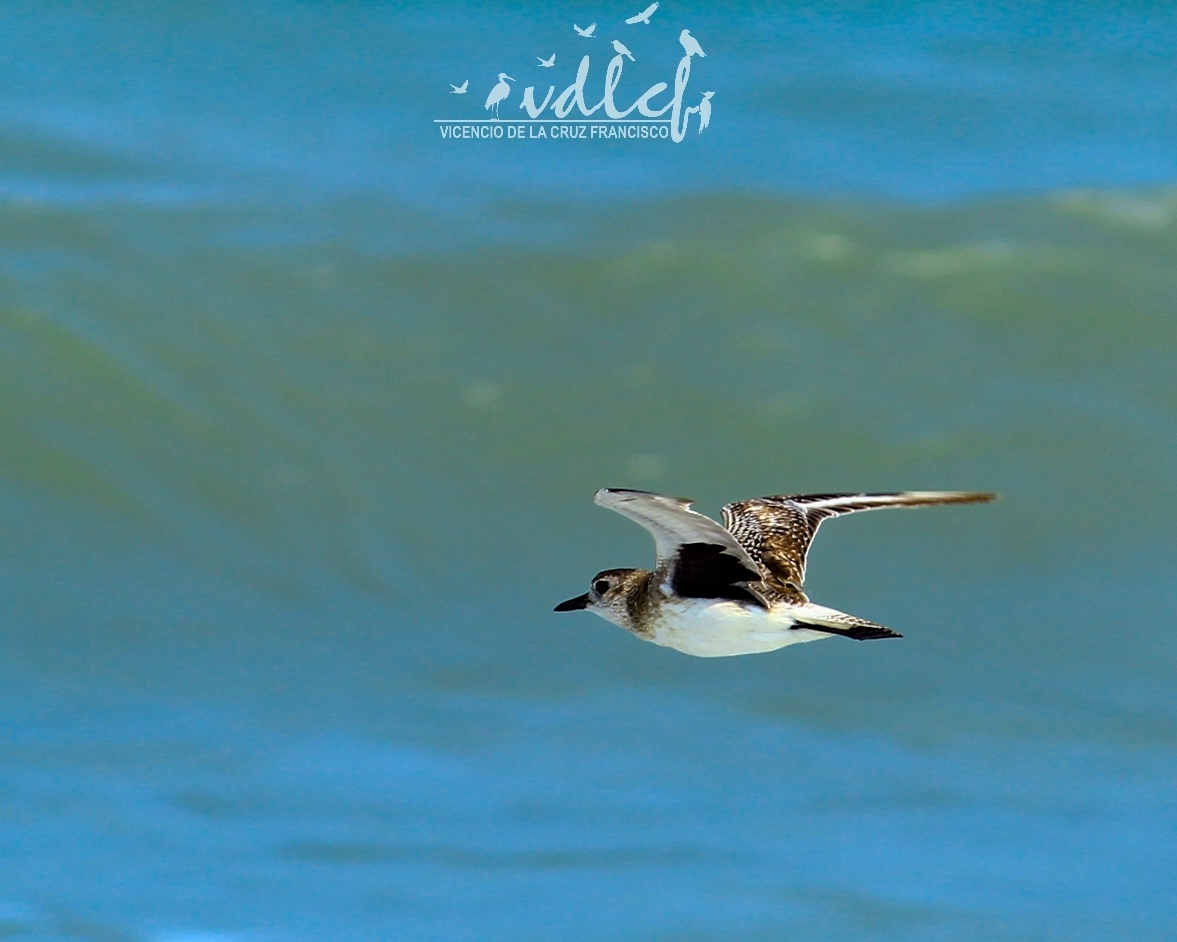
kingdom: Animalia
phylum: Chordata
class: Aves
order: Charadriiformes
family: Charadriidae
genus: Pluvialis
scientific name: Pluvialis squatarola
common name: Grey plover
